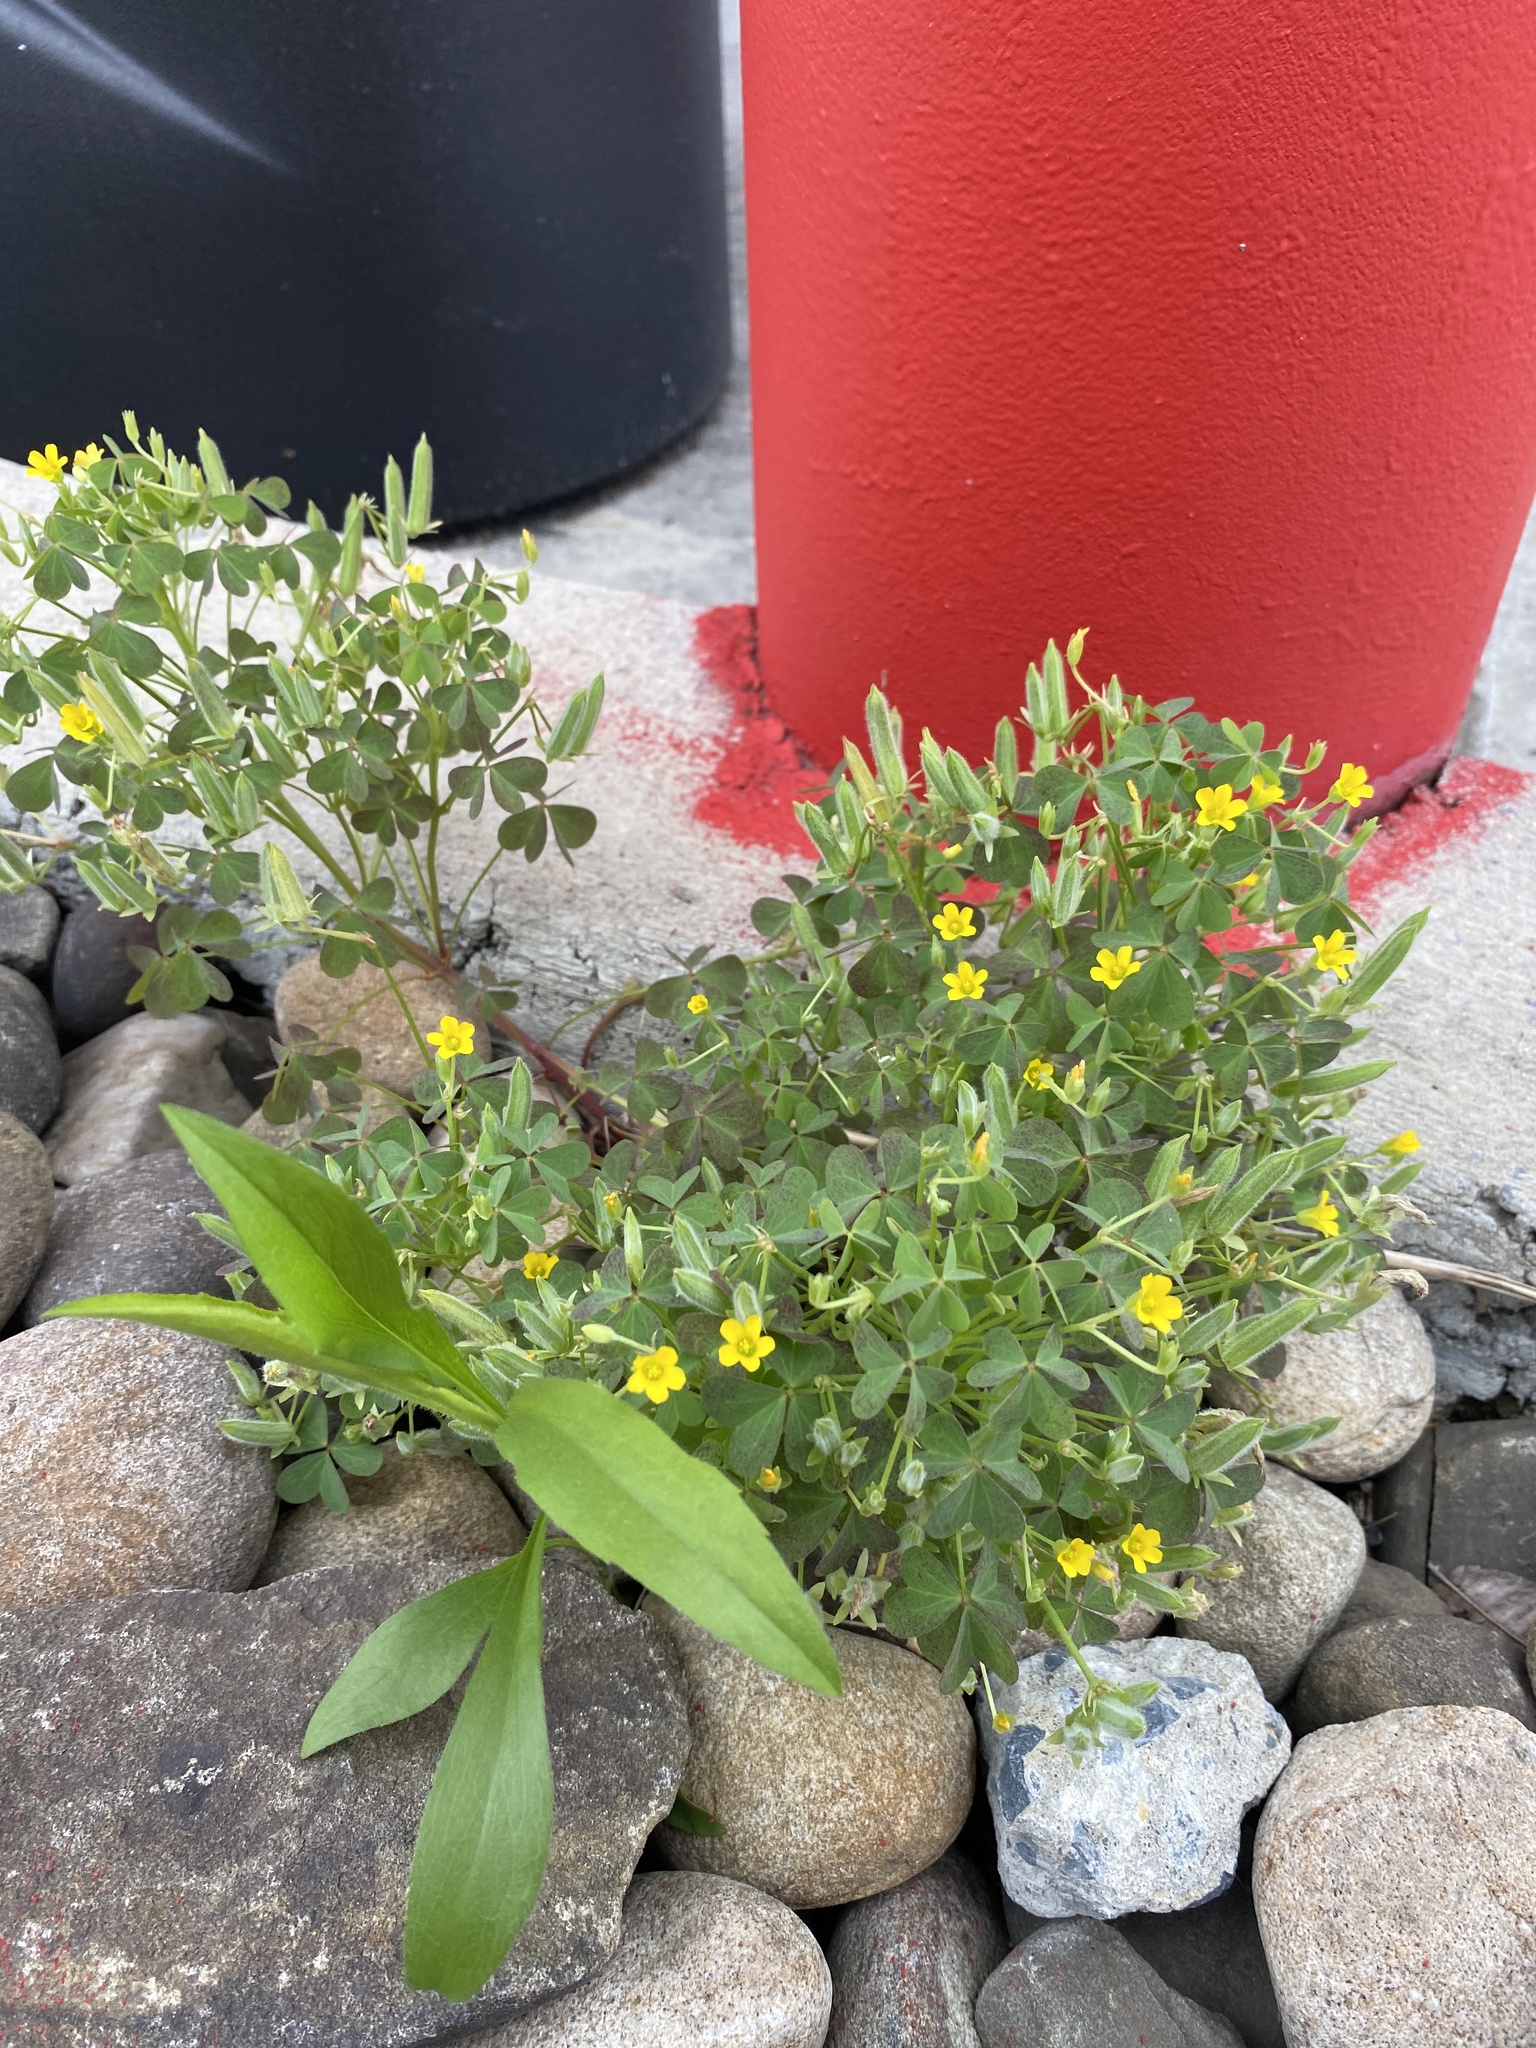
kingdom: Plantae
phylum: Tracheophyta
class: Magnoliopsida
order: Oxalidales
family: Oxalidaceae
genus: Oxalis
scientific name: Oxalis stricta
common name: Upright yellow-sorrel
